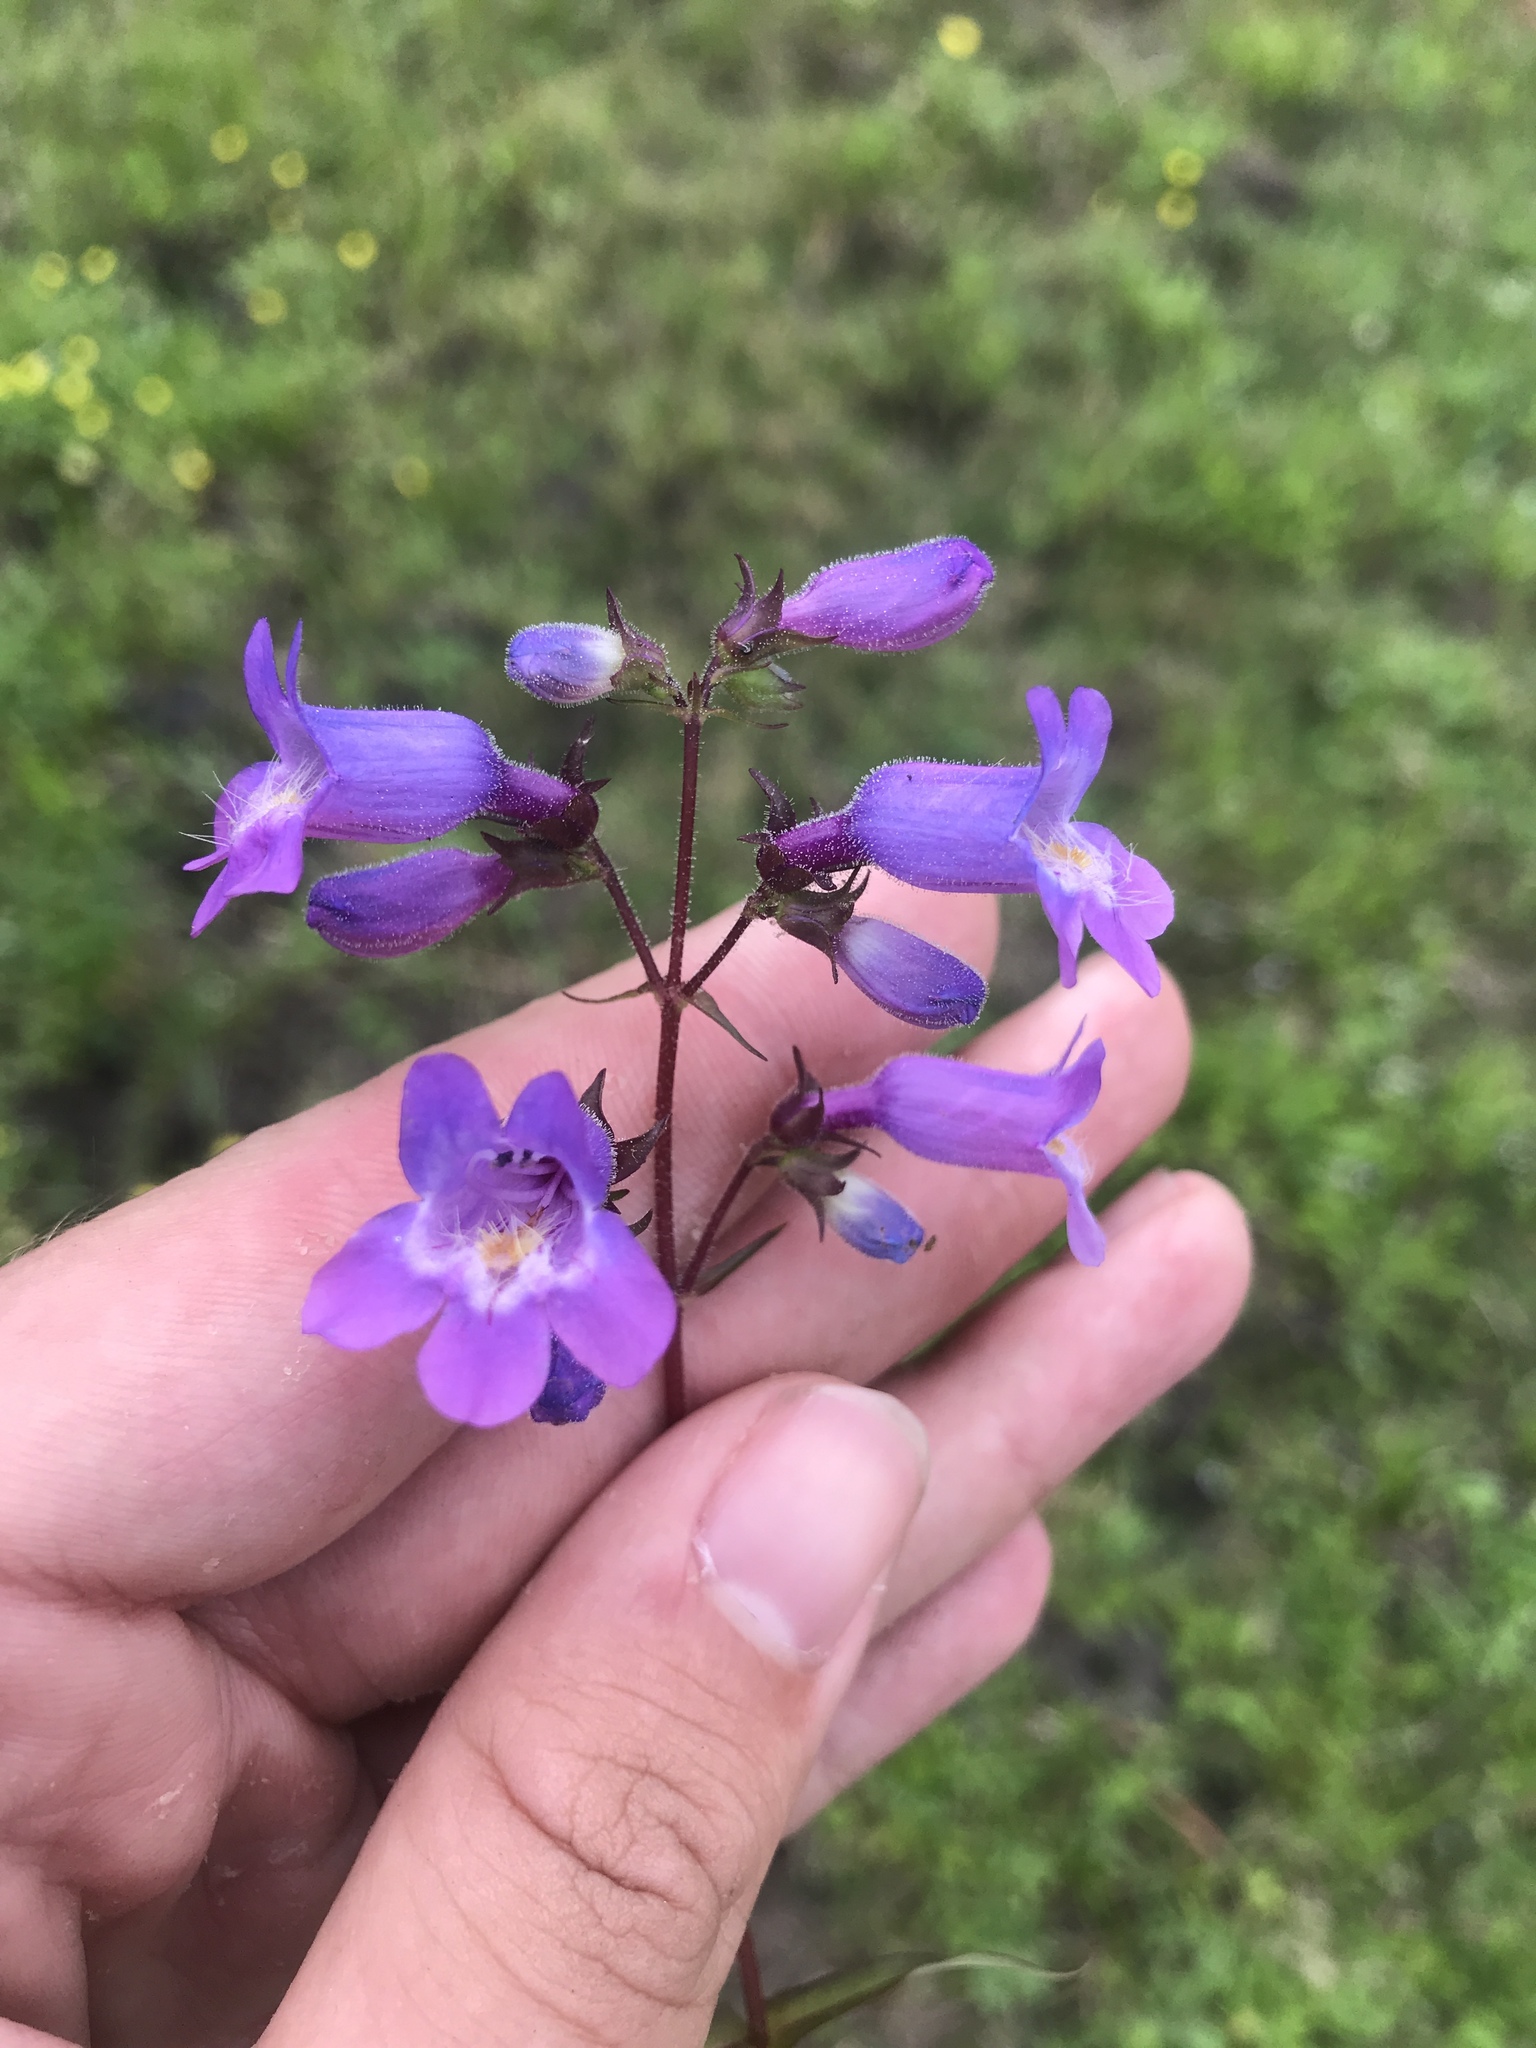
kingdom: Plantae
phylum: Tracheophyta
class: Magnoliopsida
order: Lamiales
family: Plantaginaceae
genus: Penstemon
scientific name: Penstemon tenuis
